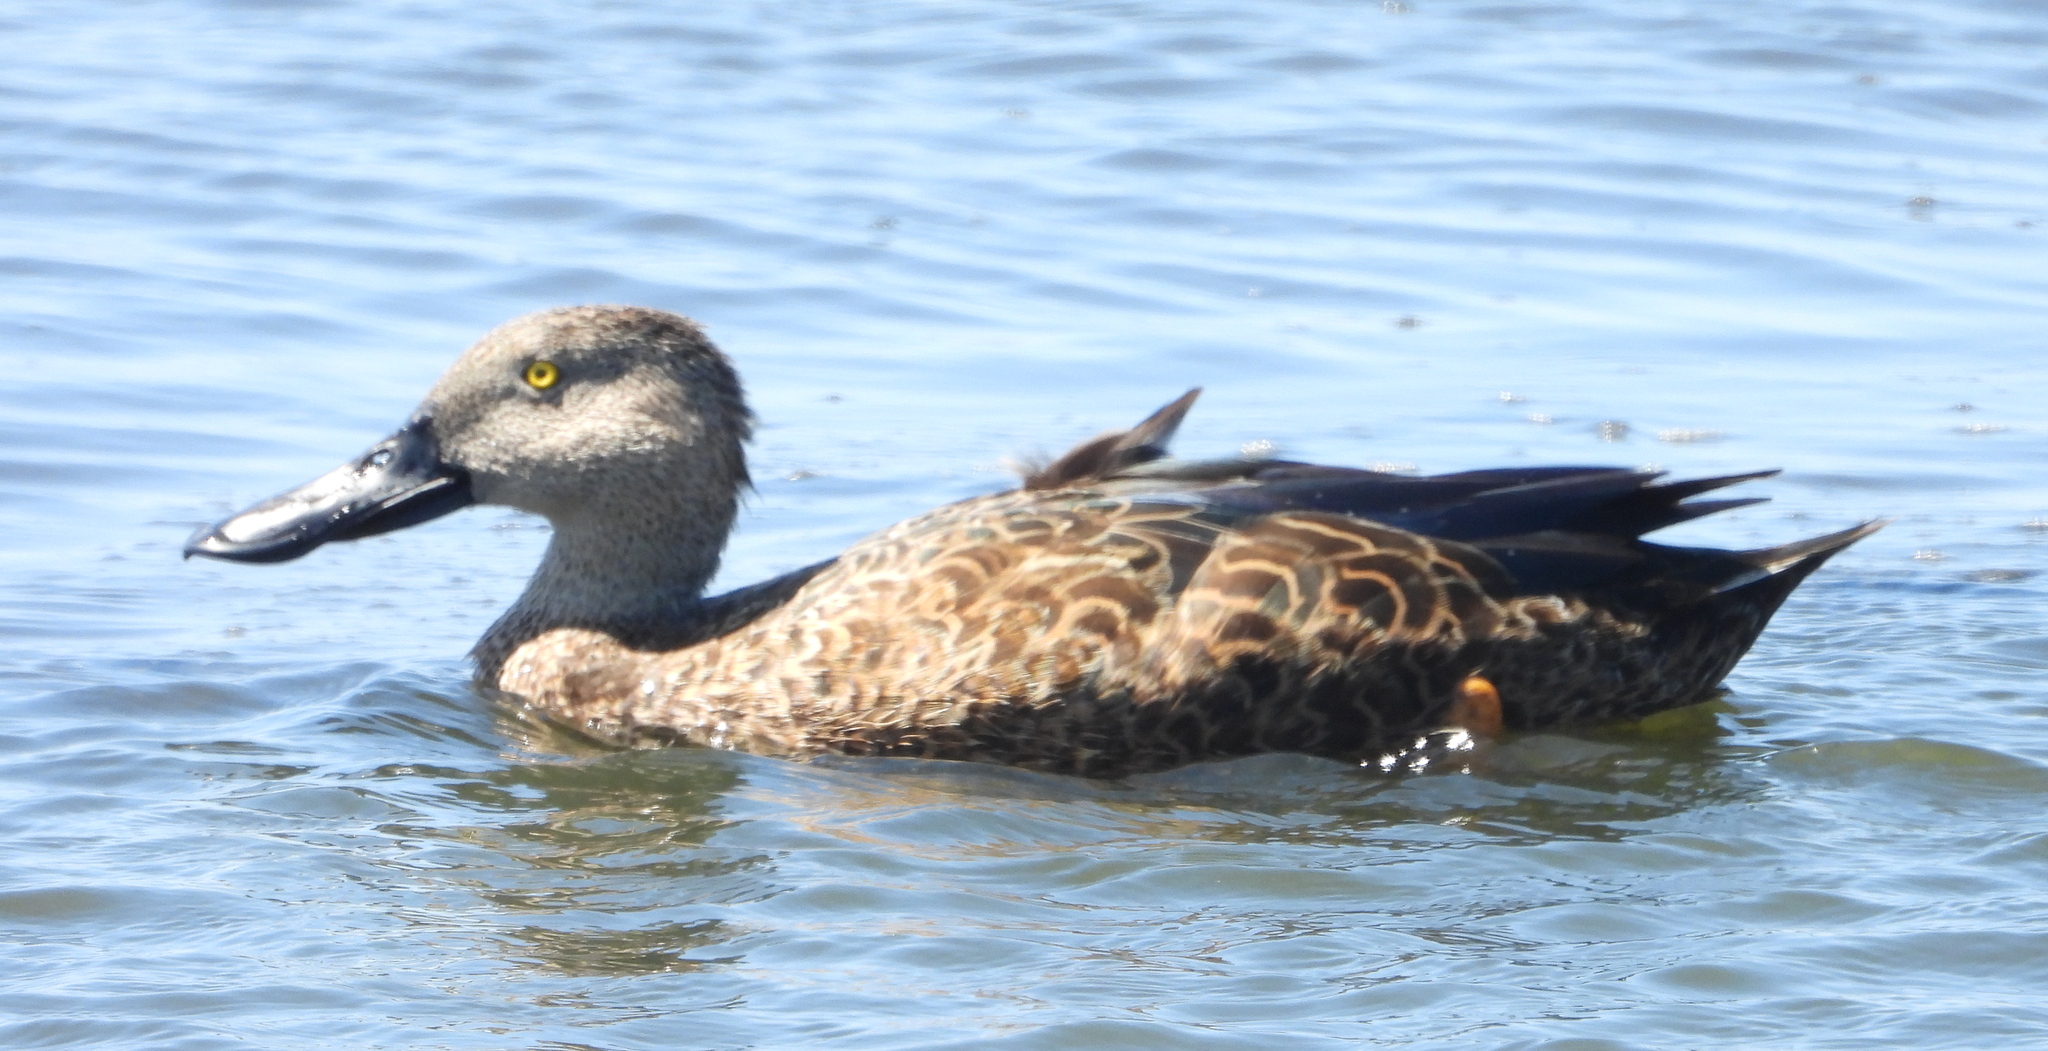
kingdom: Animalia
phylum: Chordata
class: Aves
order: Anseriformes
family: Anatidae
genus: Spatula
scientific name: Spatula smithii
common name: Cape shoveler
